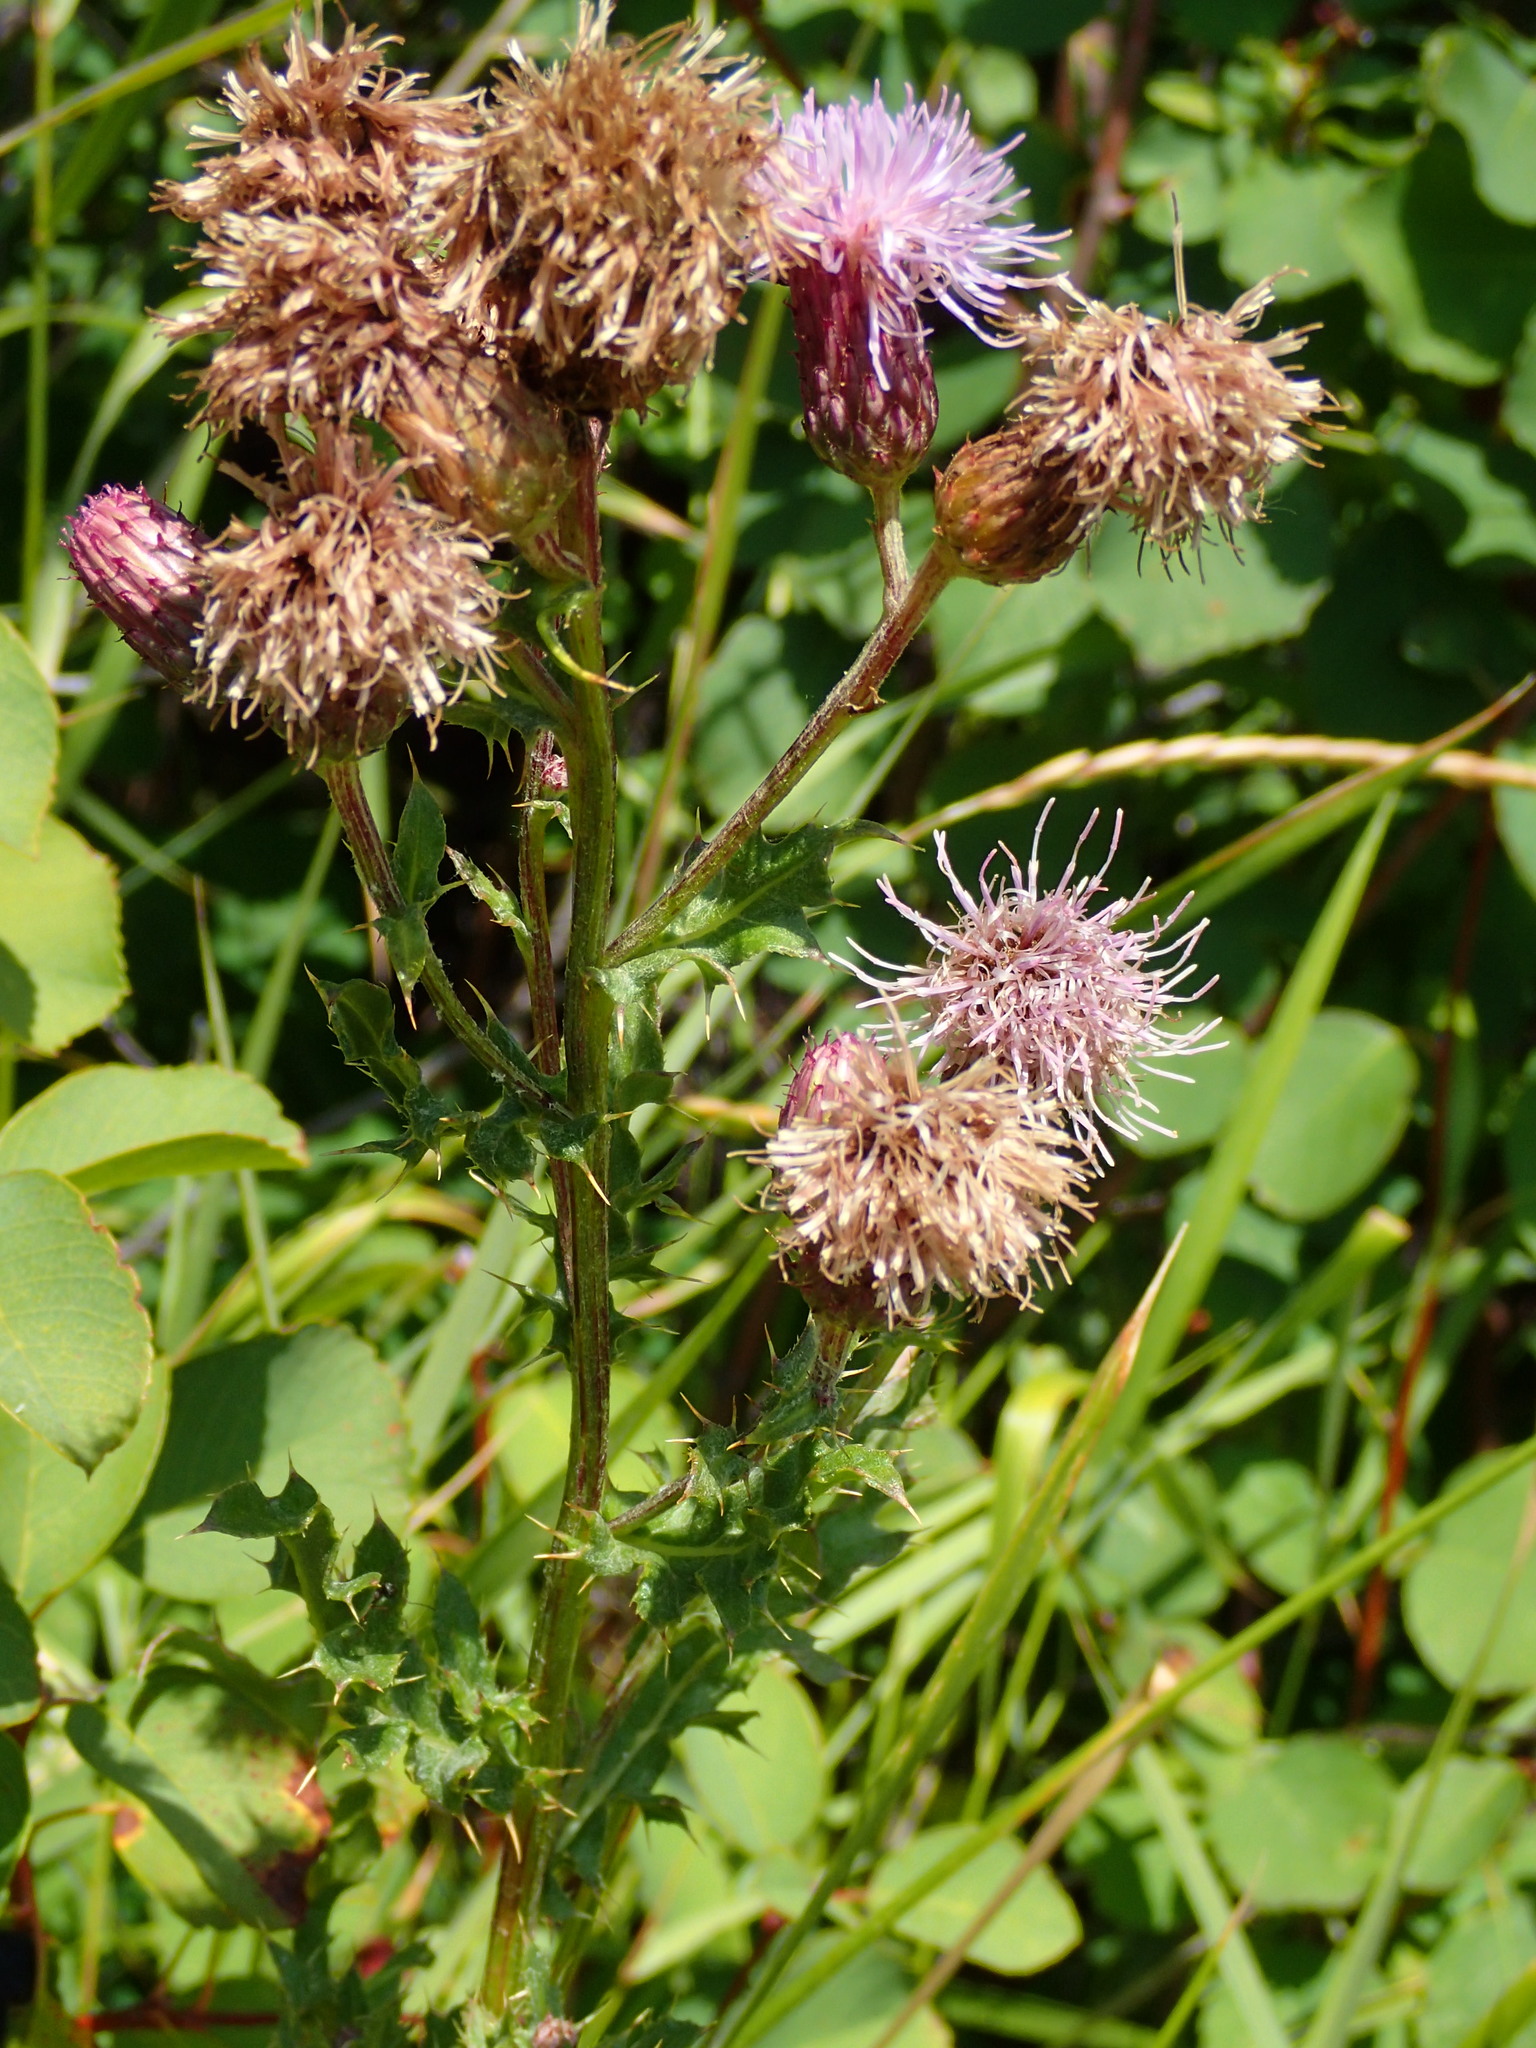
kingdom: Plantae
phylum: Tracheophyta
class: Magnoliopsida
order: Asterales
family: Asteraceae
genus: Cirsium
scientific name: Cirsium arvense
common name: Creeping thistle
